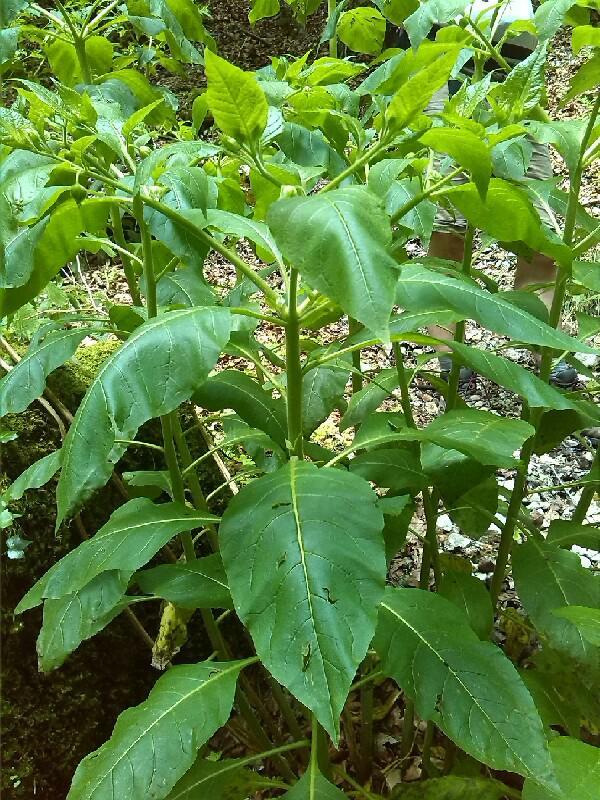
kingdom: Plantae
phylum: Tracheophyta
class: Magnoliopsida
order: Solanales
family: Solanaceae
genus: Atropa
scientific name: Atropa belladonna
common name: Deadly nightshade
